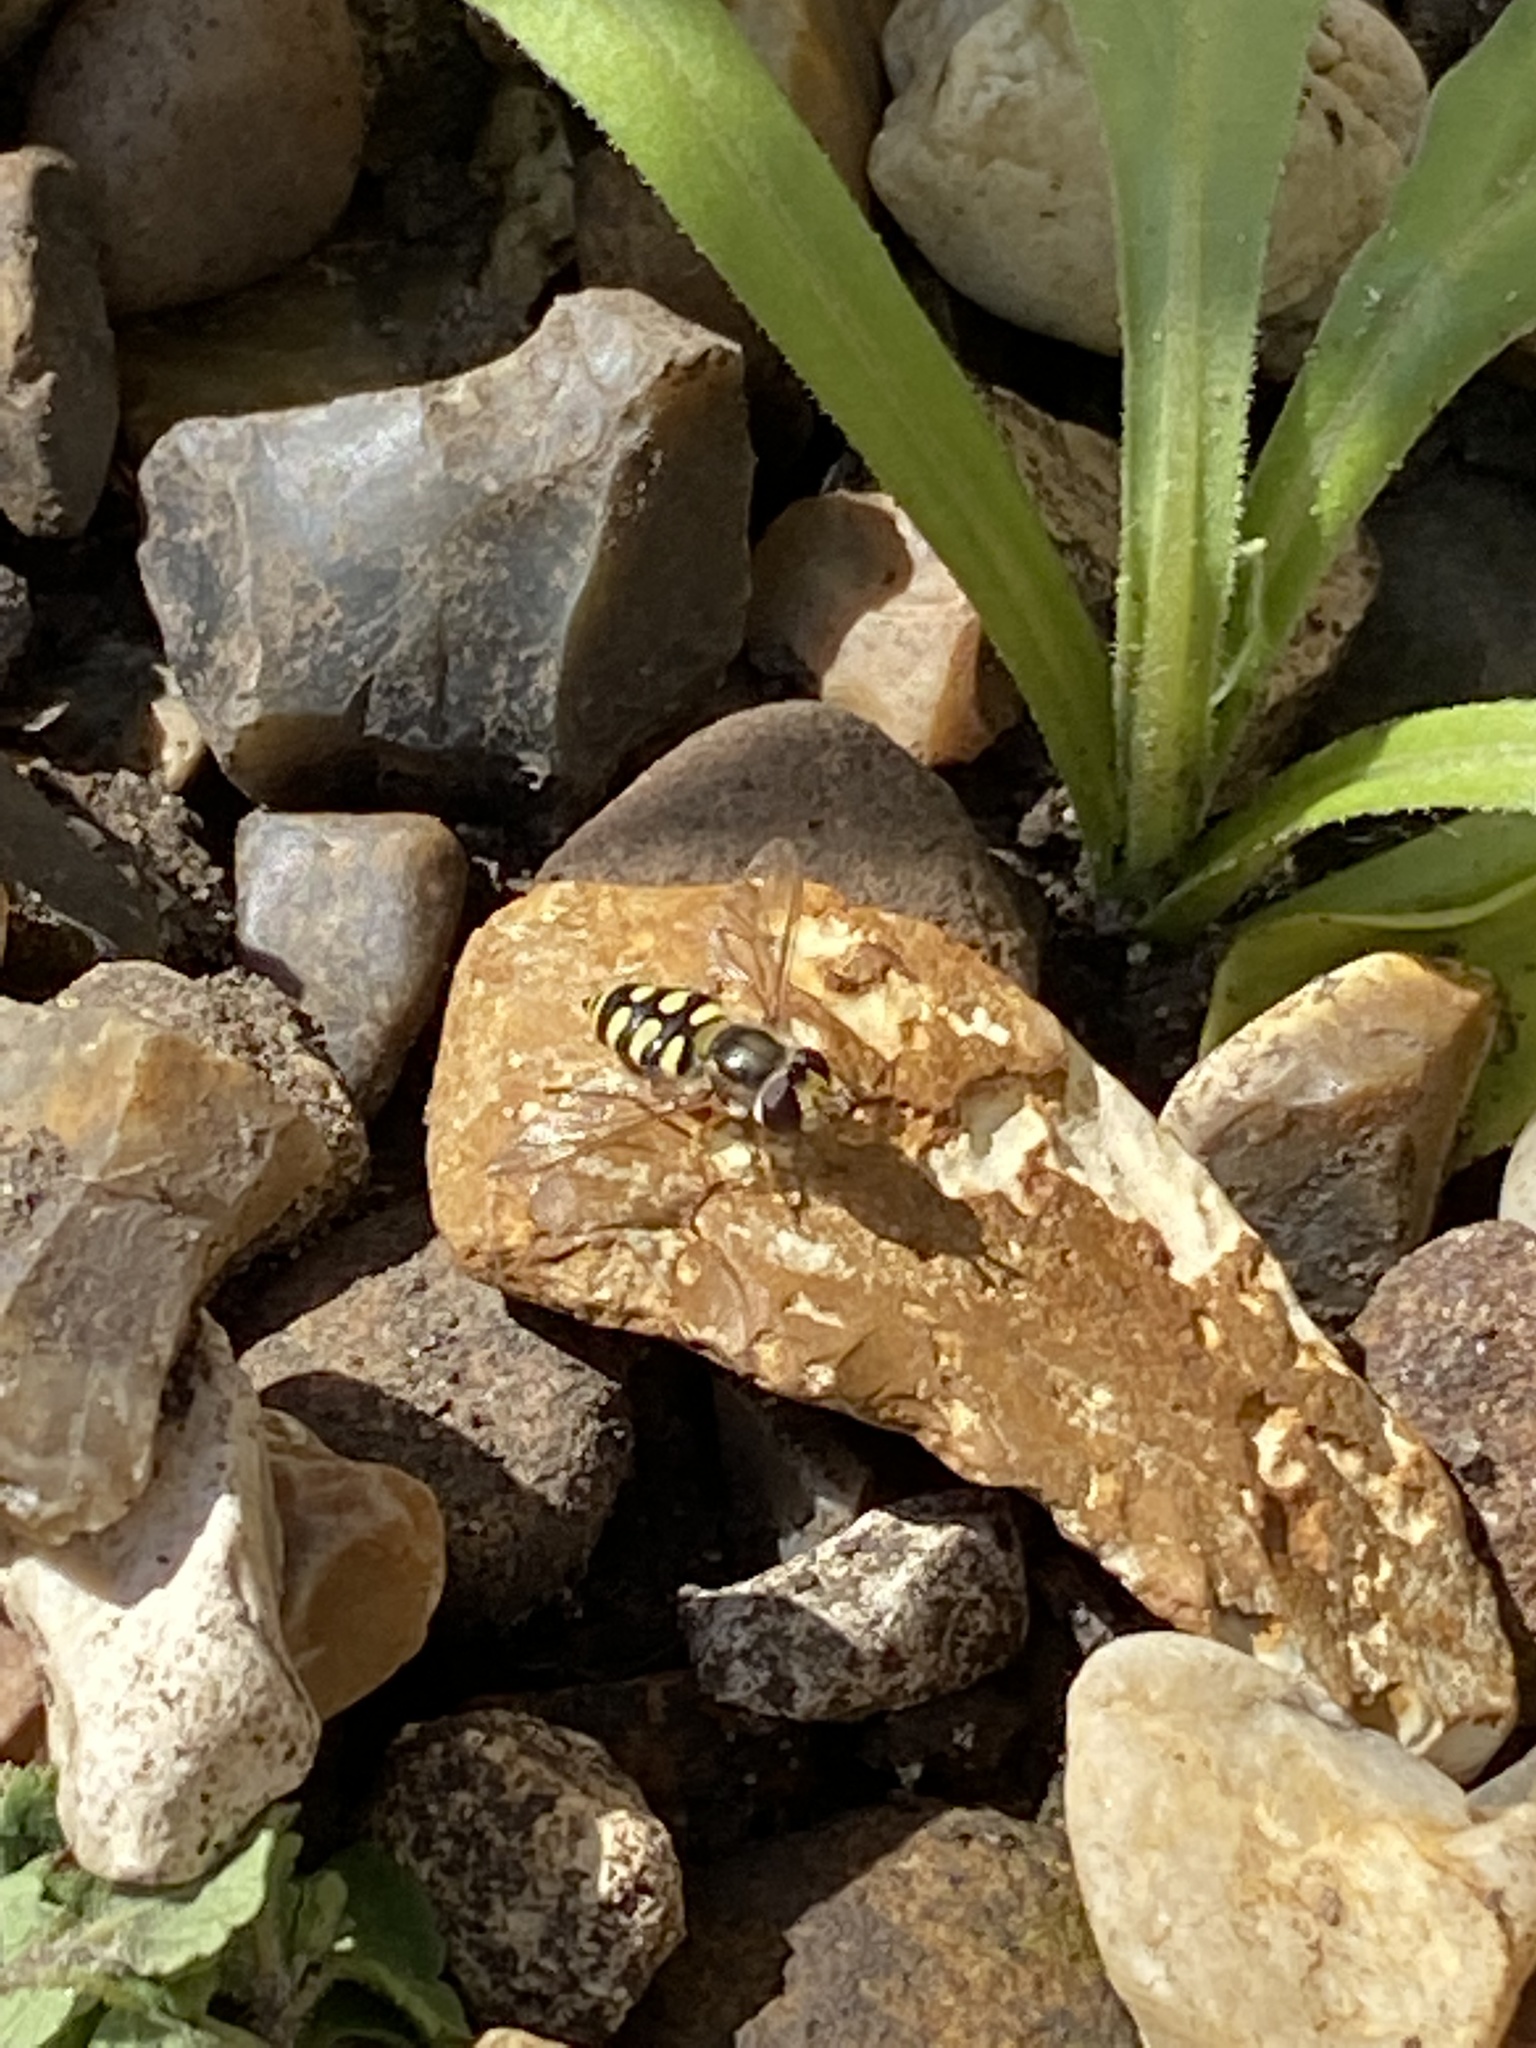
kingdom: Animalia
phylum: Arthropoda
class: Insecta
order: Diptera
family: Syrphidae
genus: Eupeodes
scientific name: Eupeodes corollae
